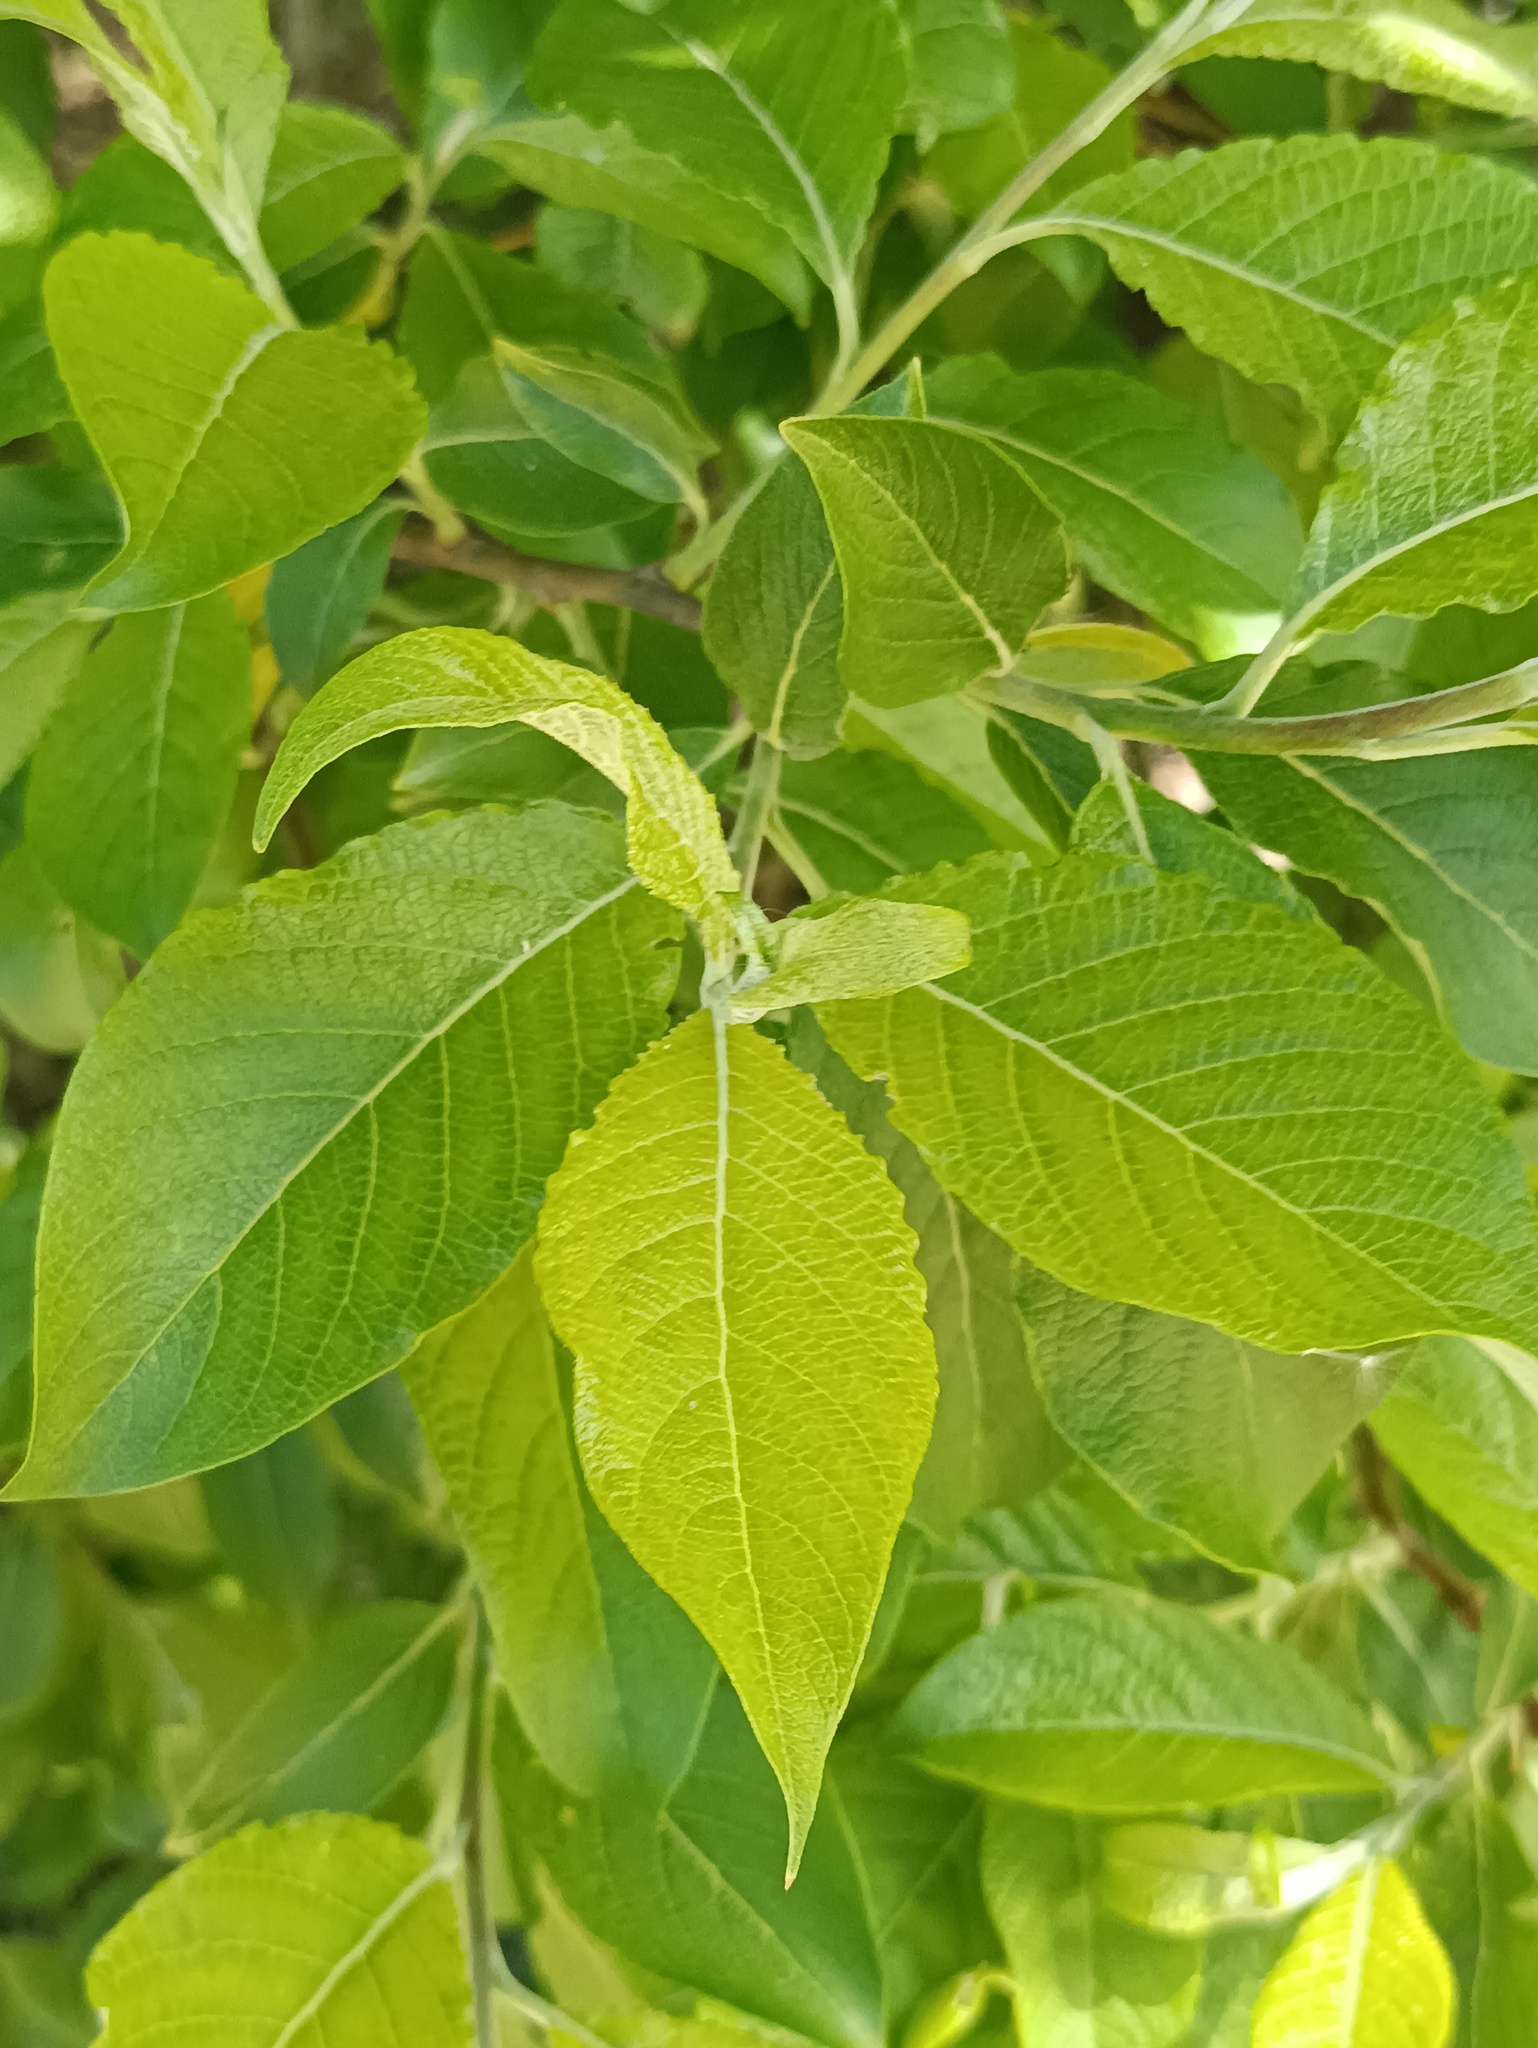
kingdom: Plantae
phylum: Tracheophyta
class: Magnoliopsida
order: Malpighiales
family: Salicaceae
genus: Salix
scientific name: Salix caprea
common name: Goat willow
